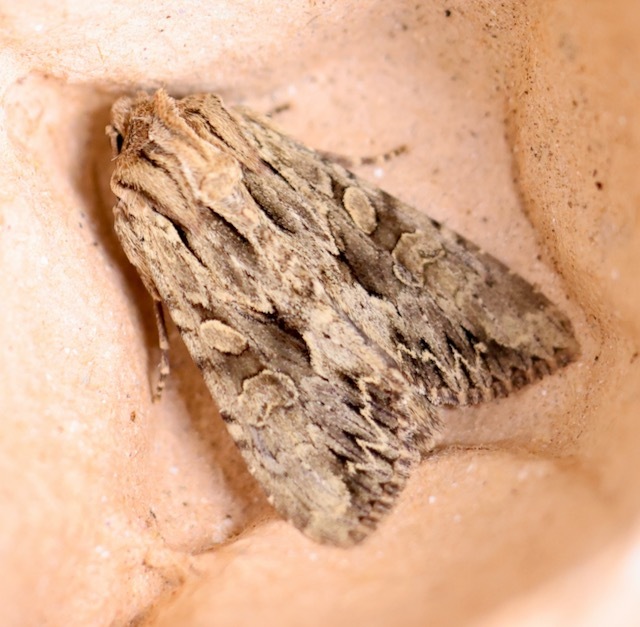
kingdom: Animalia
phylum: Arthropoda
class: Insecta
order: Lepidoptera
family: Noctuidae
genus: Apamea
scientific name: Apamea monoglypha
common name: Dark arches
